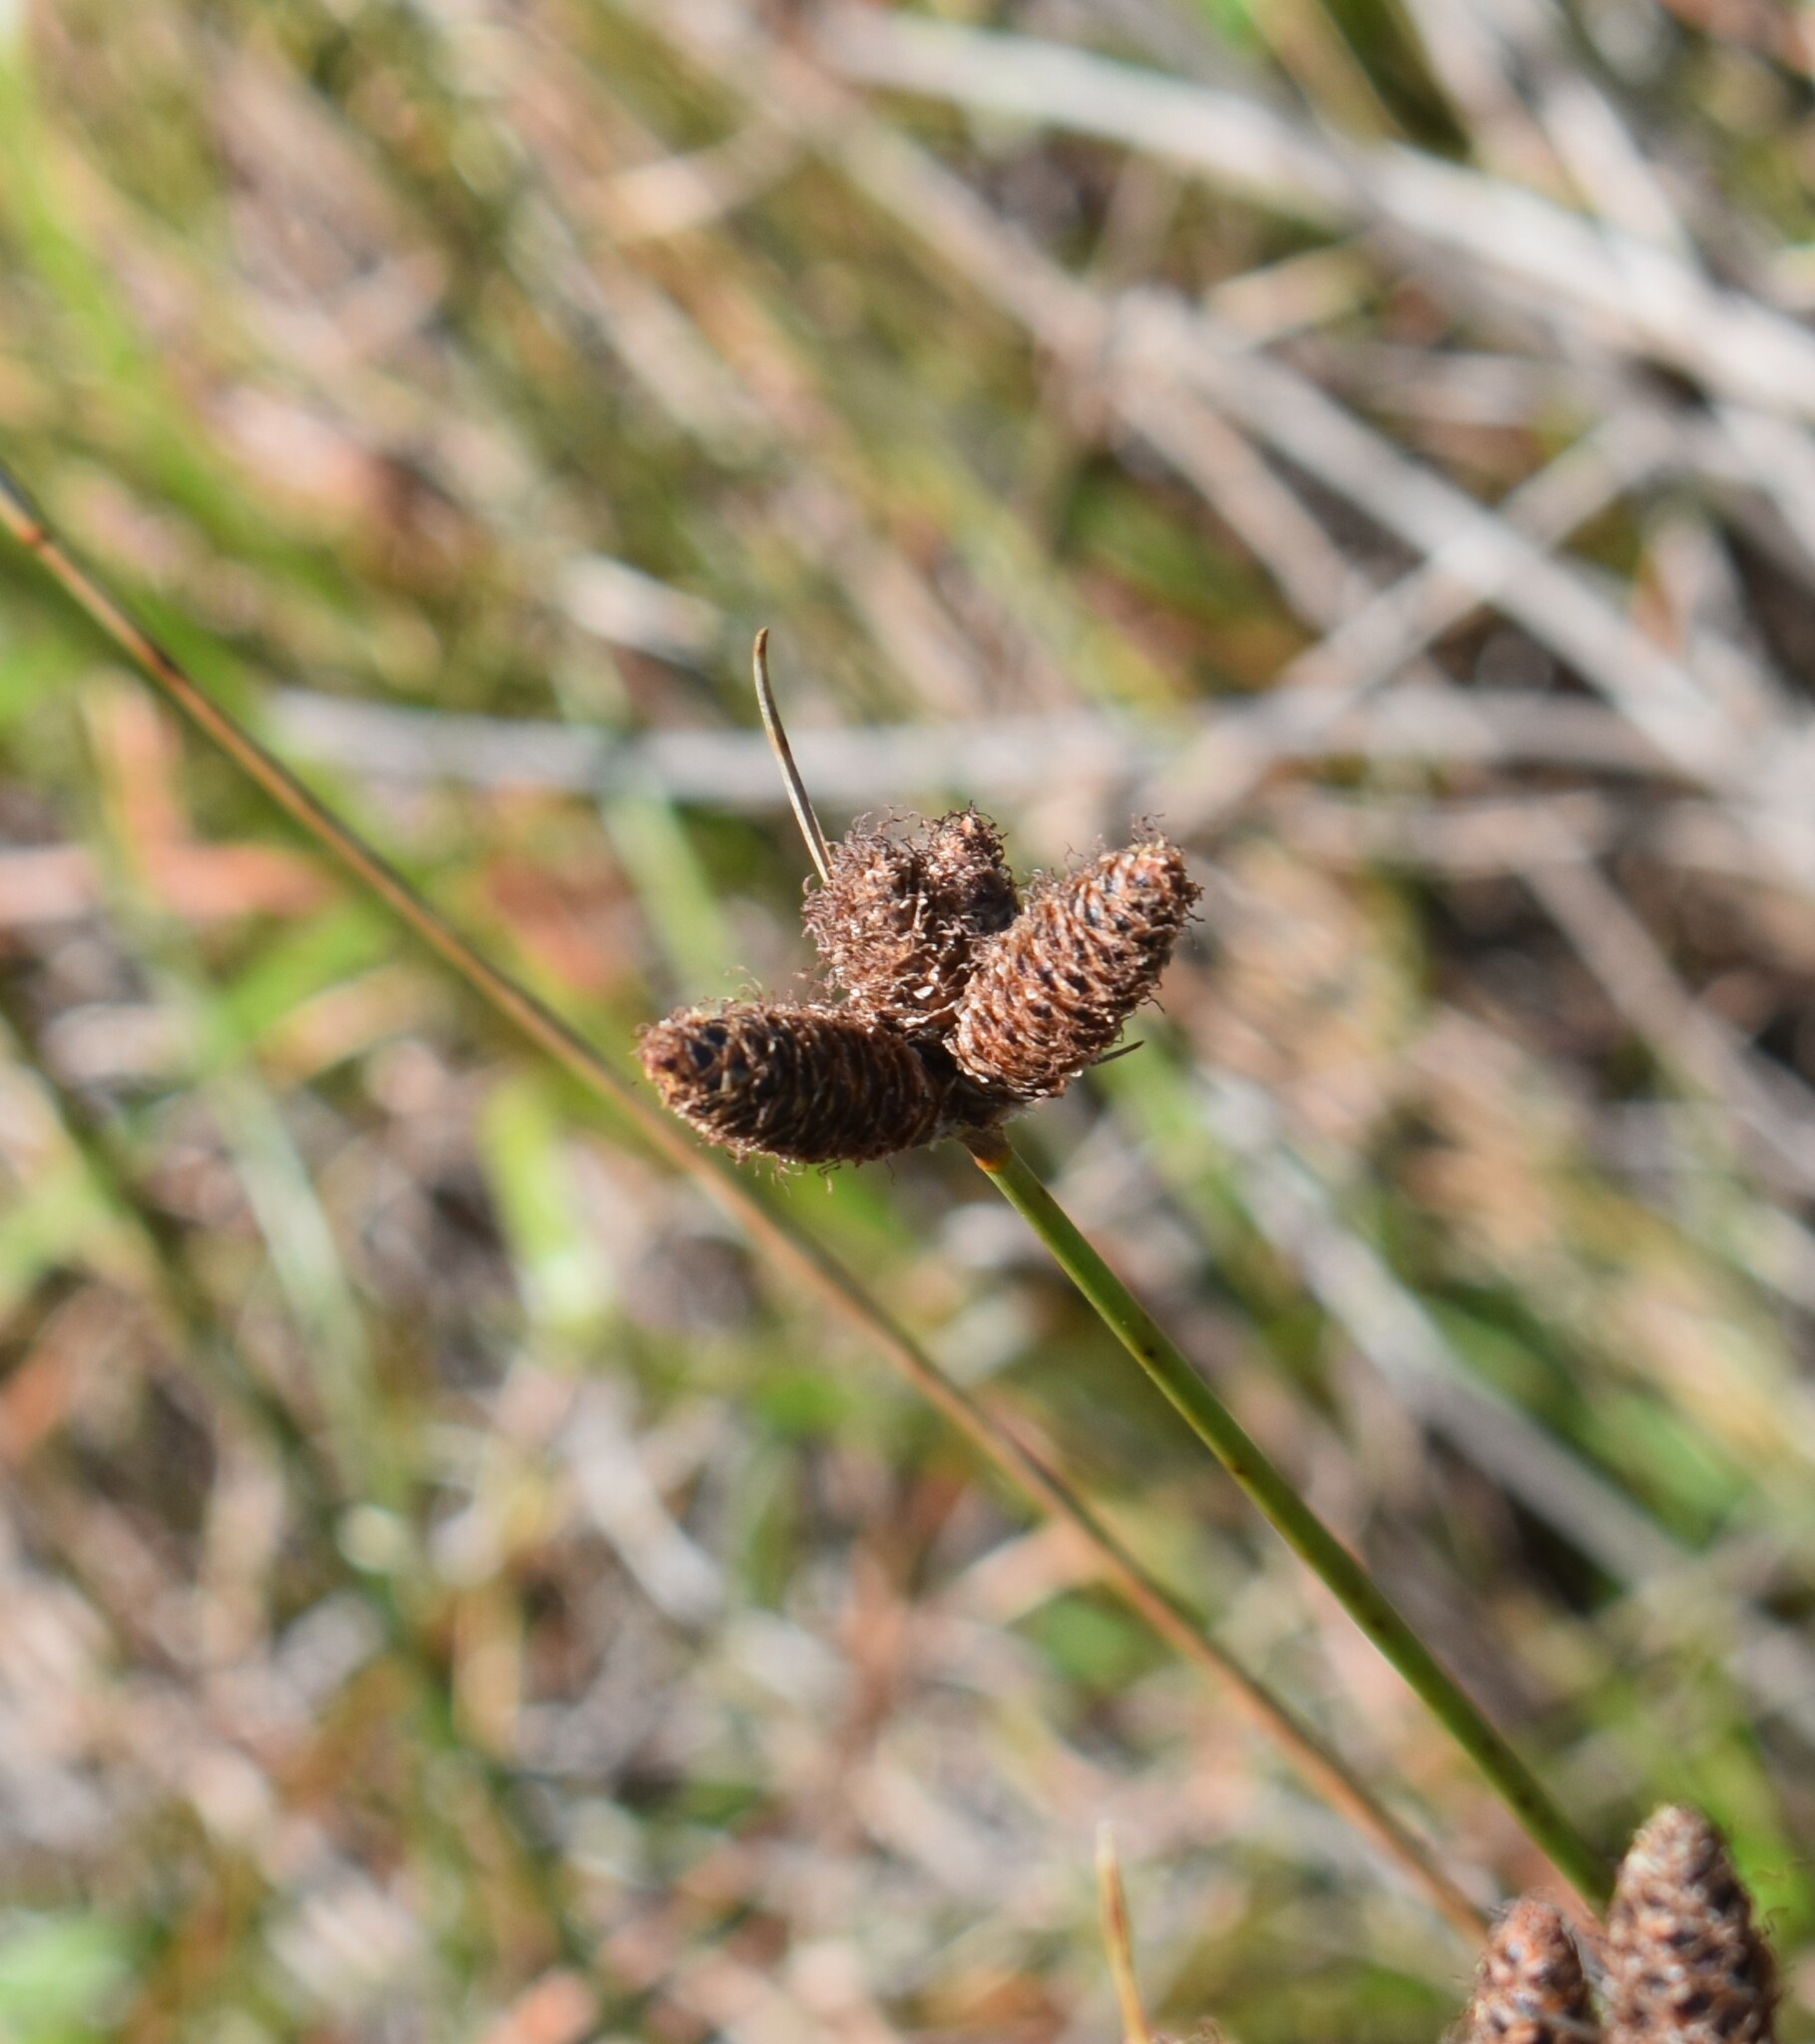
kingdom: Plantae
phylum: Tracheophyta
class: Liliopsida
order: Poales
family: Cyperaceae
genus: Hellmuthia
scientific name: Hellmuthia membranacea
